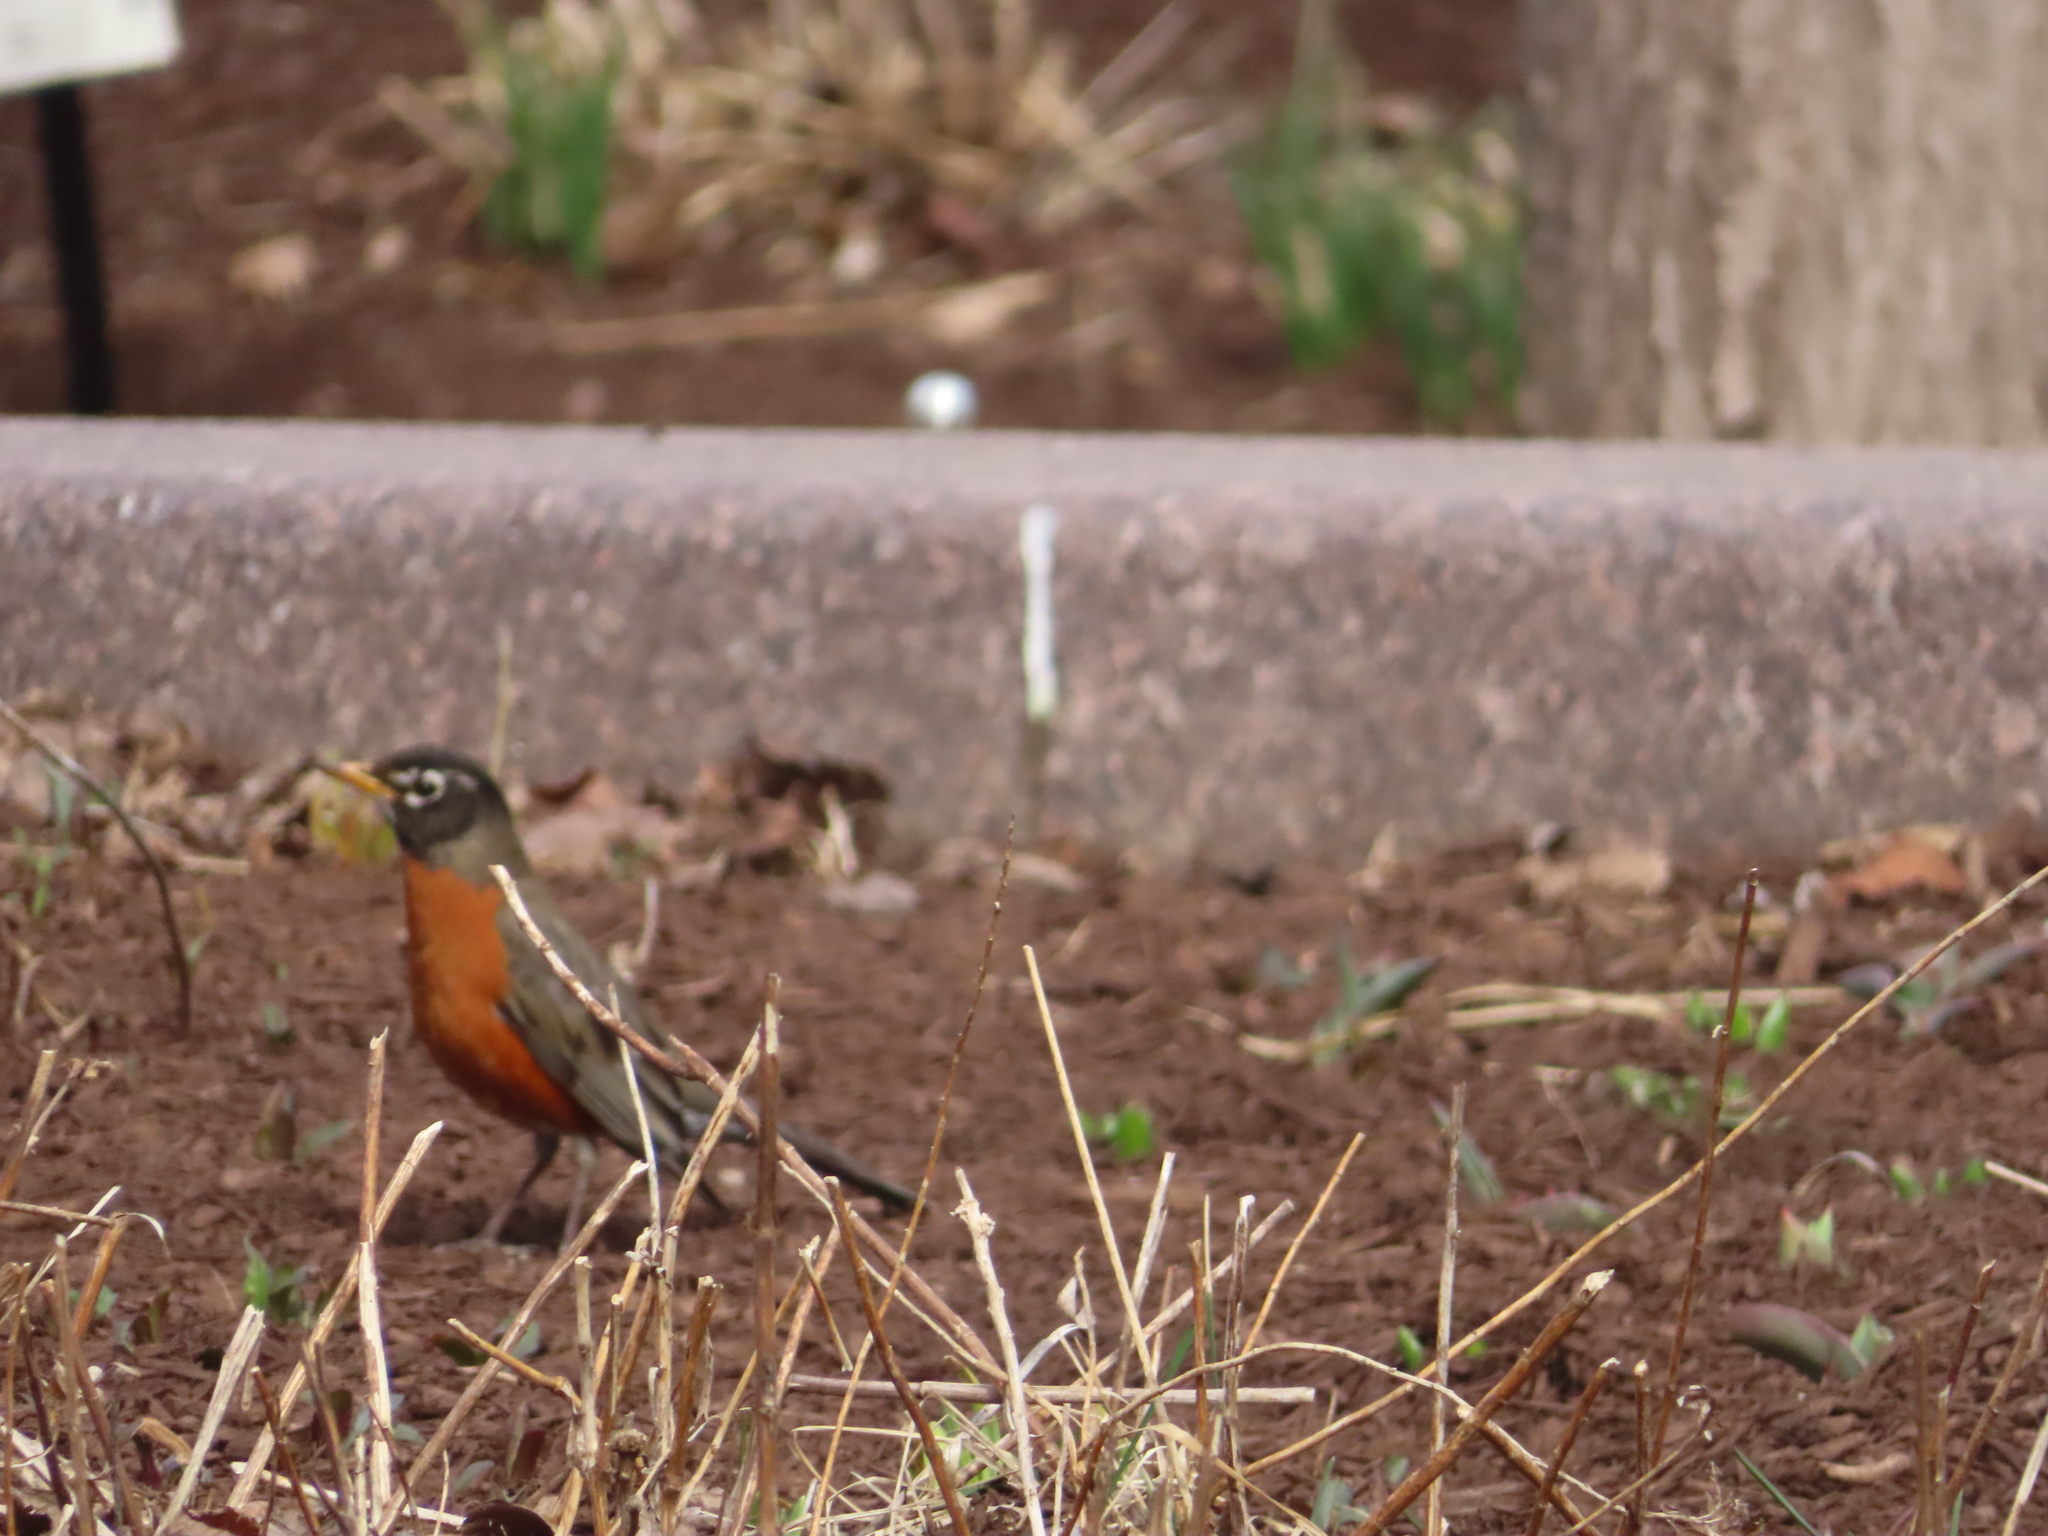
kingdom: Animalia
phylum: Chordata
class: Aves
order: Passeriformes
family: Turdidae
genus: Turdus
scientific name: Turdus migratorius
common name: American robin
